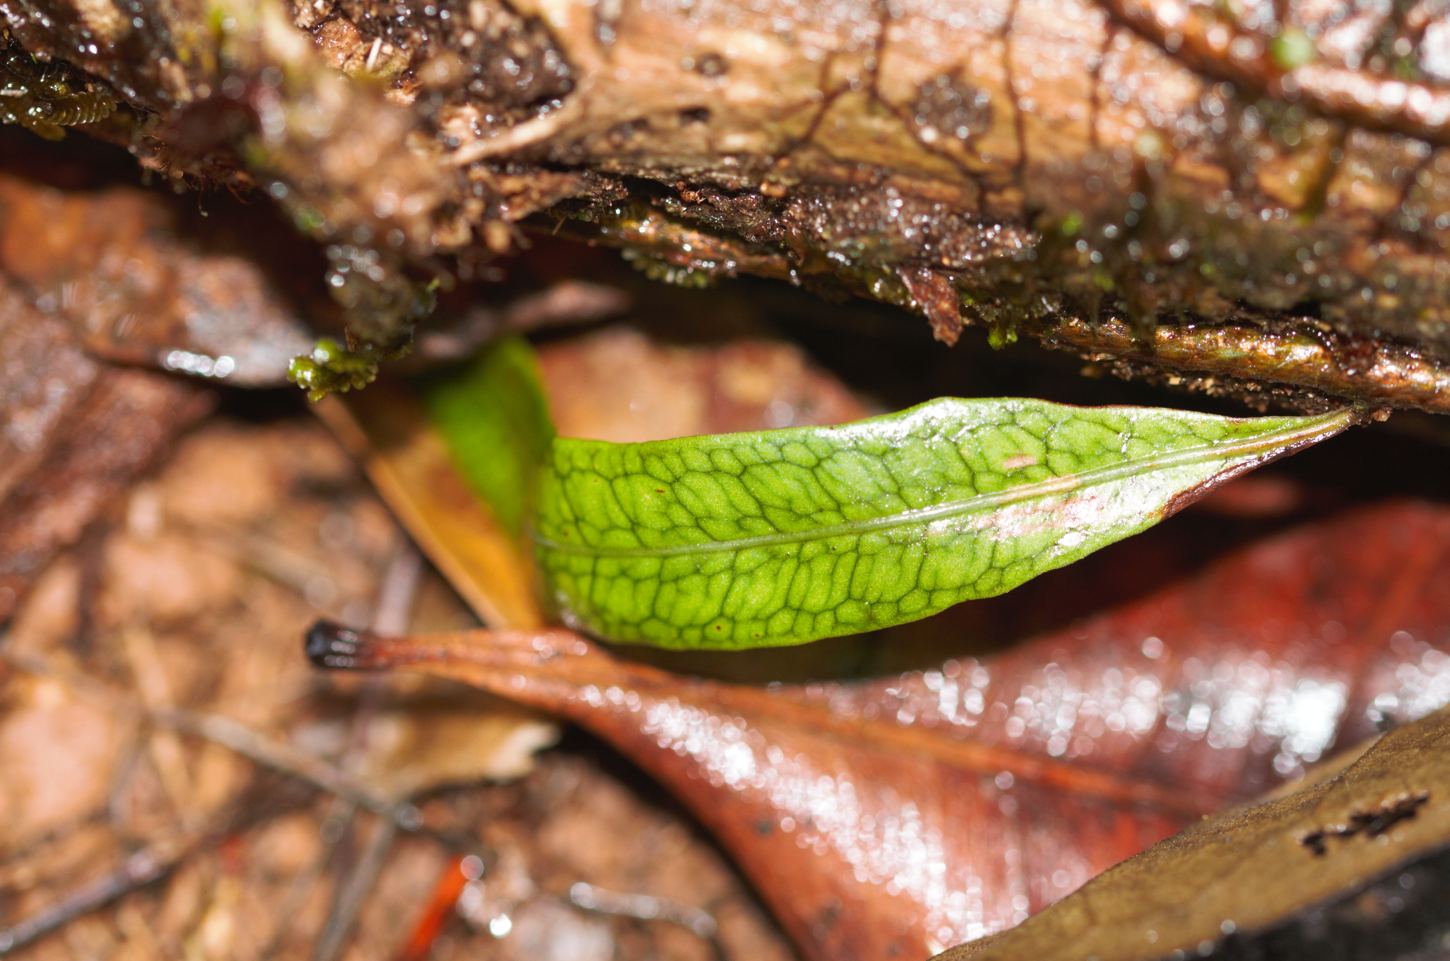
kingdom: Plantae
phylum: Tracheophyta
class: Polypodiopsida
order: Polypodiales
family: Polypodiaceae
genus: Microgramma
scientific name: Microgramma lycopodioides
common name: Bastard catclaw
